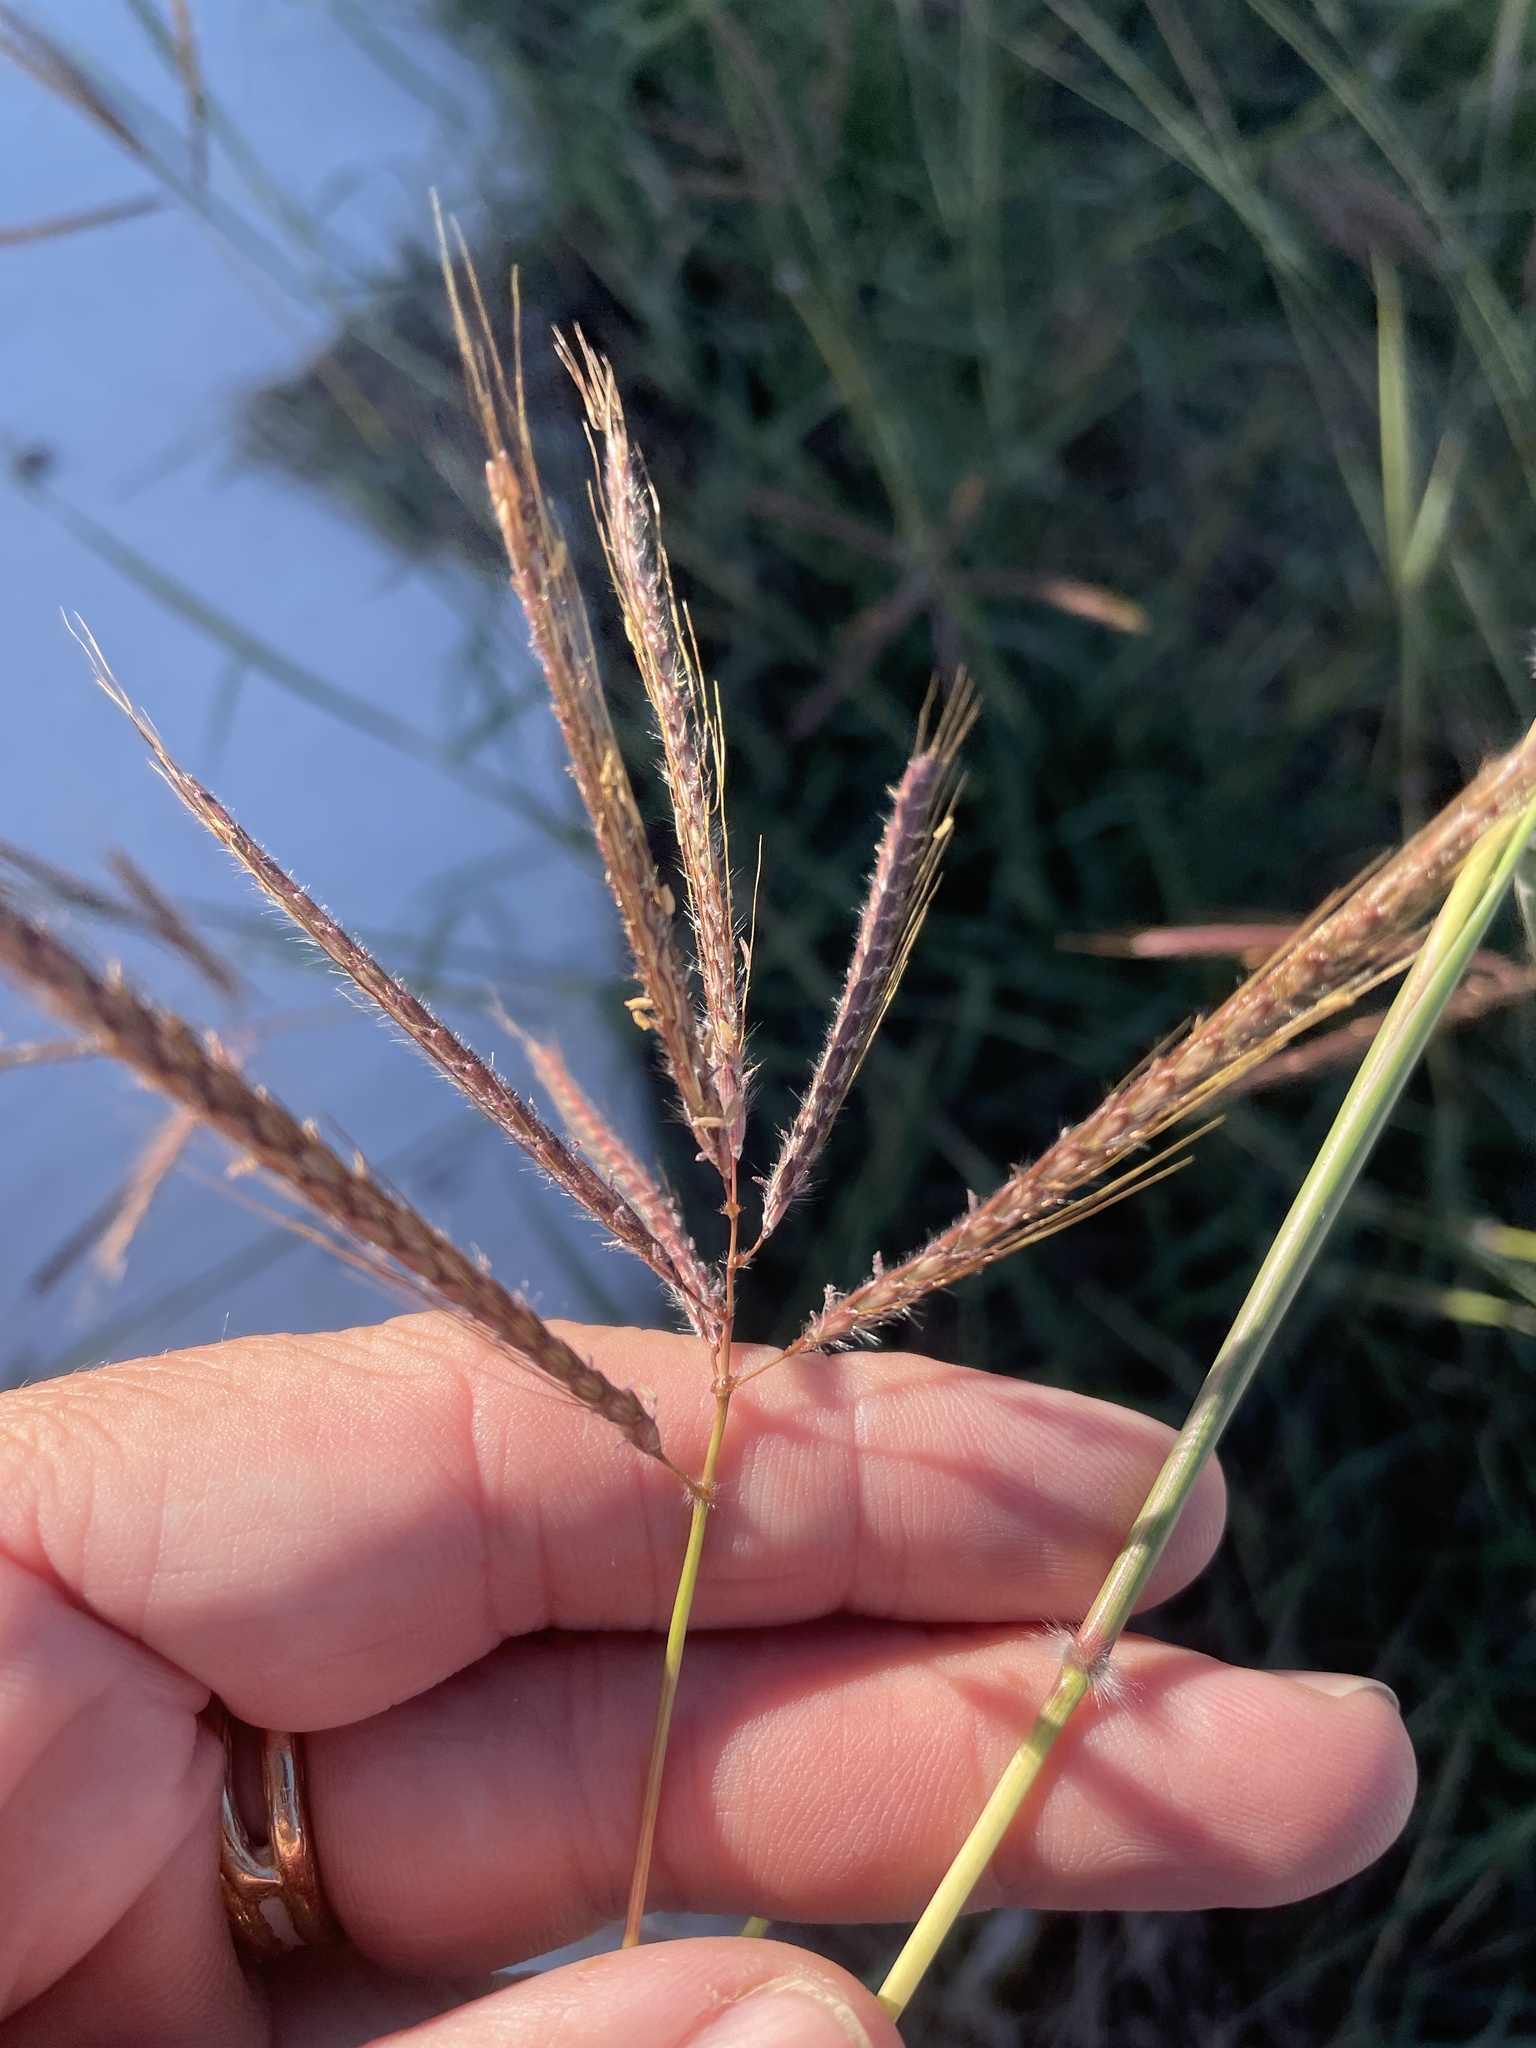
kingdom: Plantae
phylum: Tracheophyta
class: Liliopsida
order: Poales
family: Poaceae
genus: Dichanthium
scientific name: Dichanthium annulatum
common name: Kleberg's bluestem
